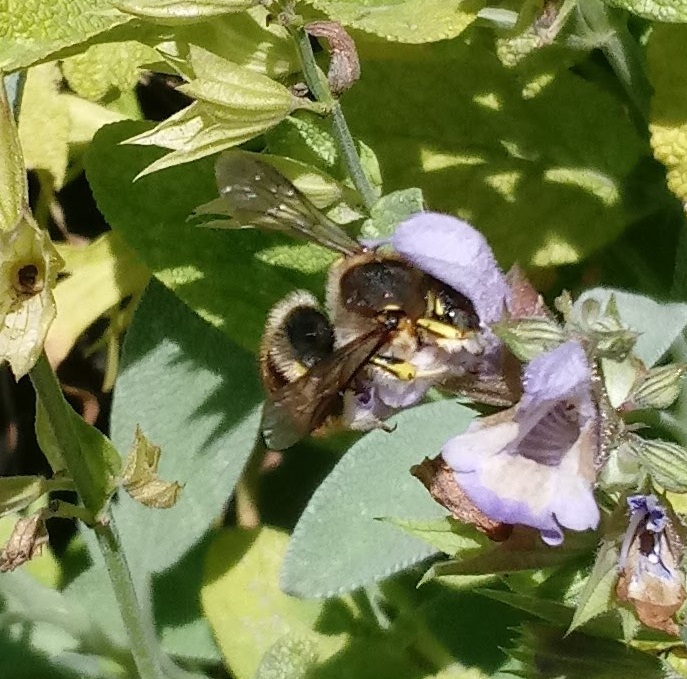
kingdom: Animalia
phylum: Arthropoda
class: Insecta
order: Hymenoptera
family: Megachilidae
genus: Anthidium
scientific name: Anthidium manicatum
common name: Wool carder bee
